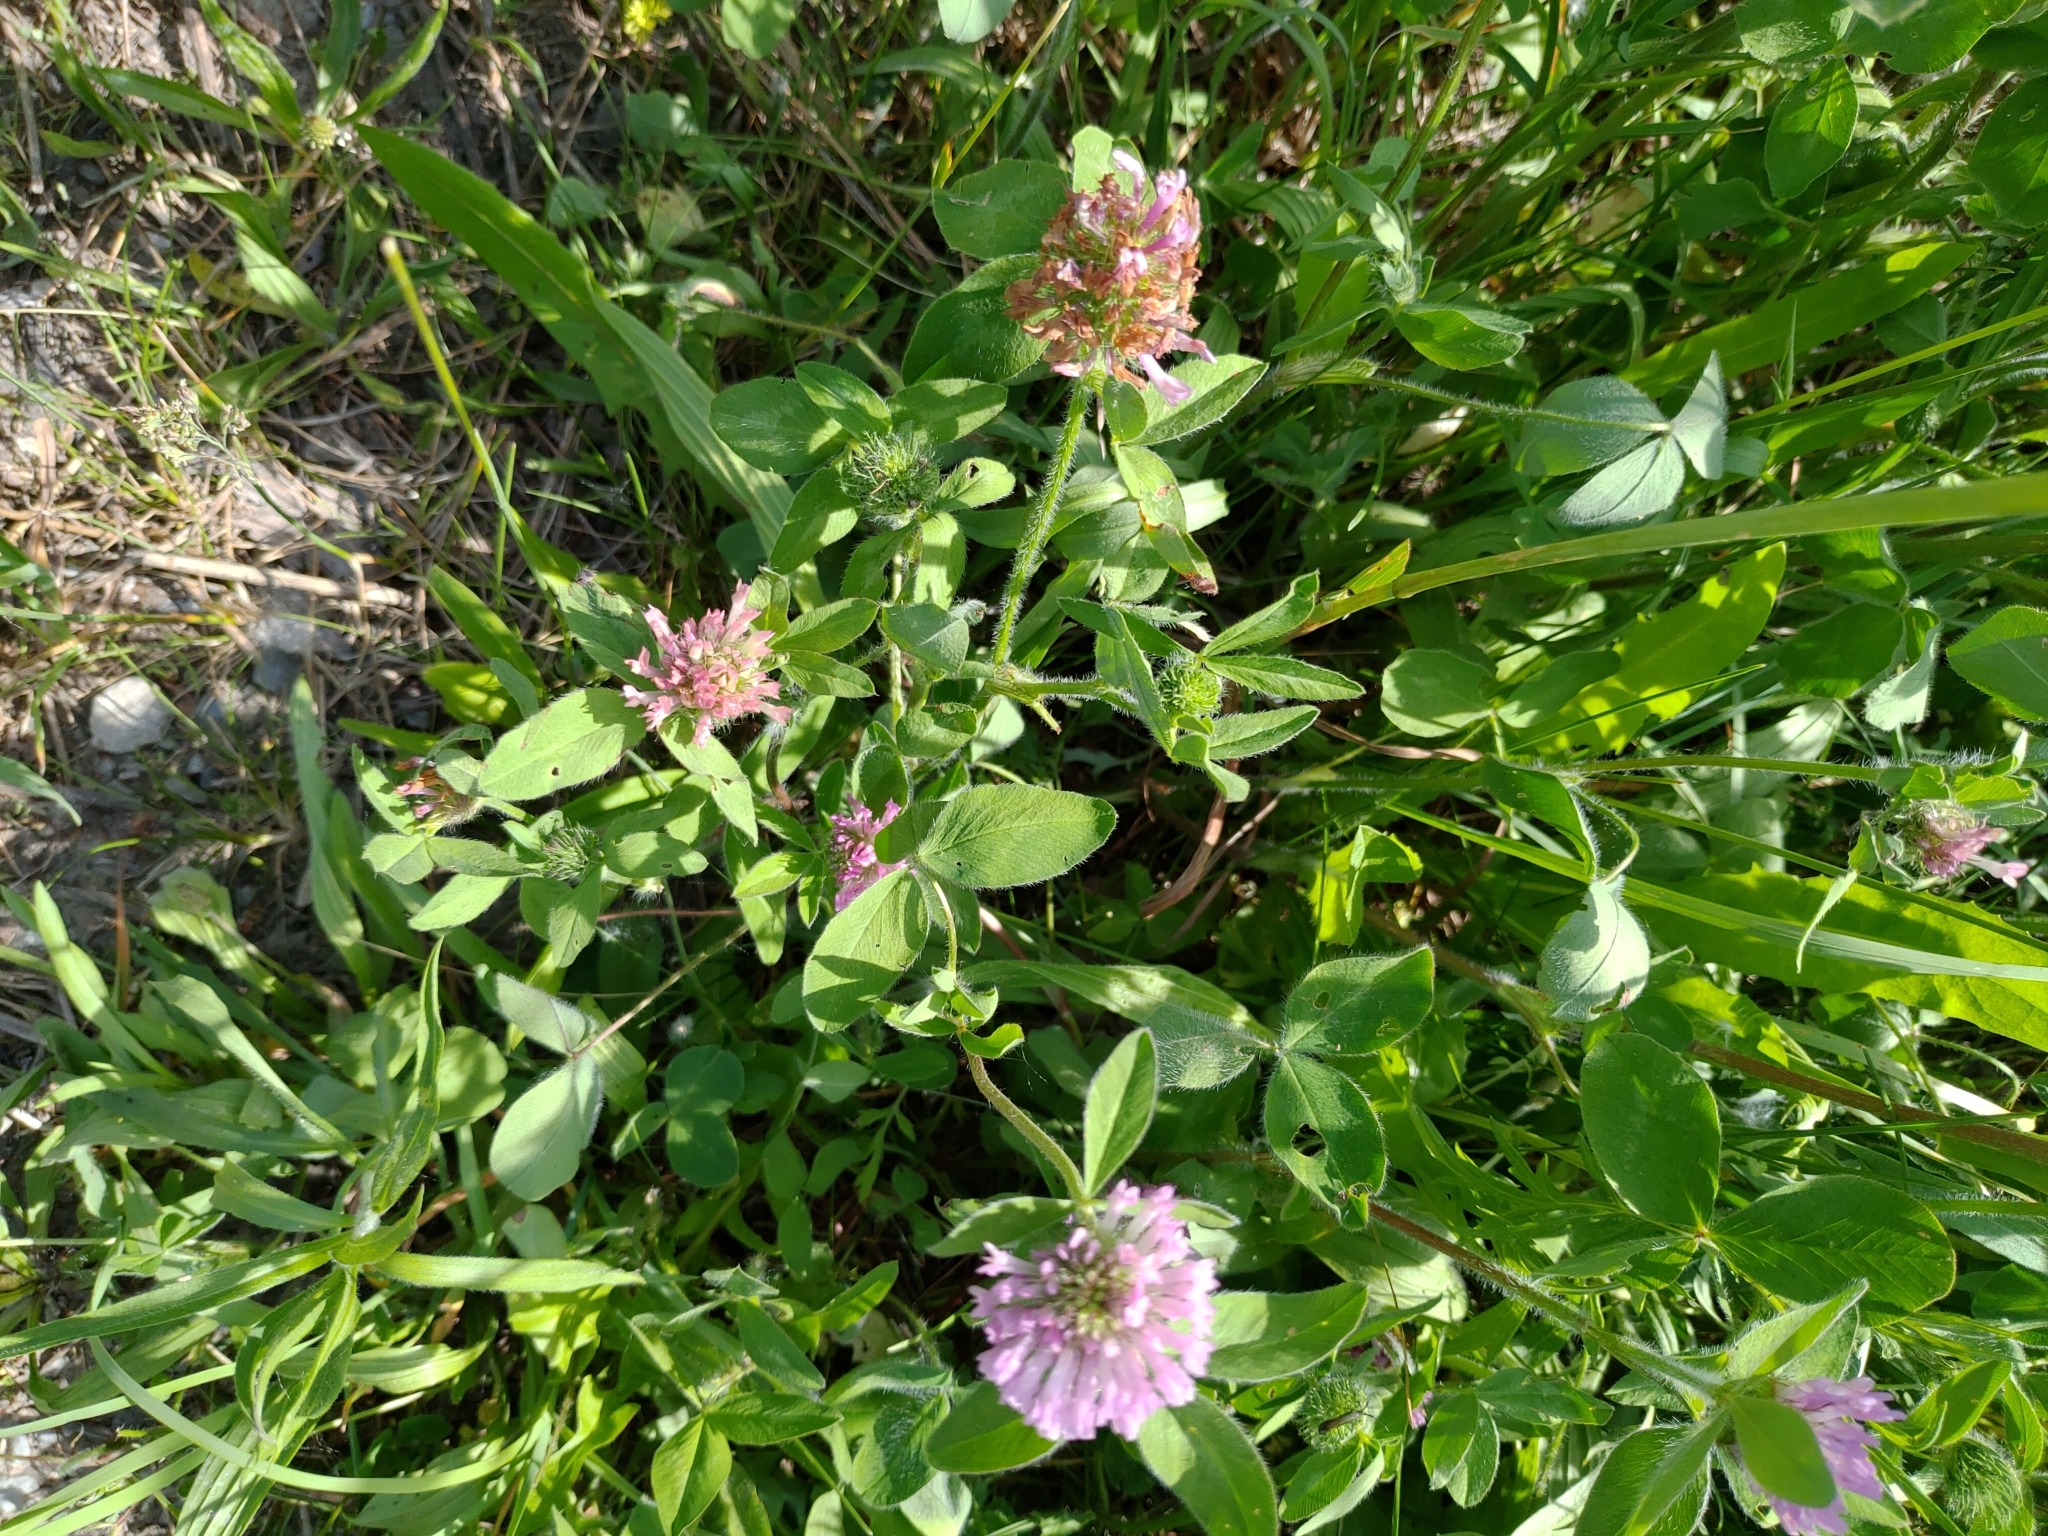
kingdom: Plantae
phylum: Tracheophyta
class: Magnoliopsida
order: Fabales
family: Fabaceae
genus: Trifolium
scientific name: Trifolium pratense
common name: Red clover
